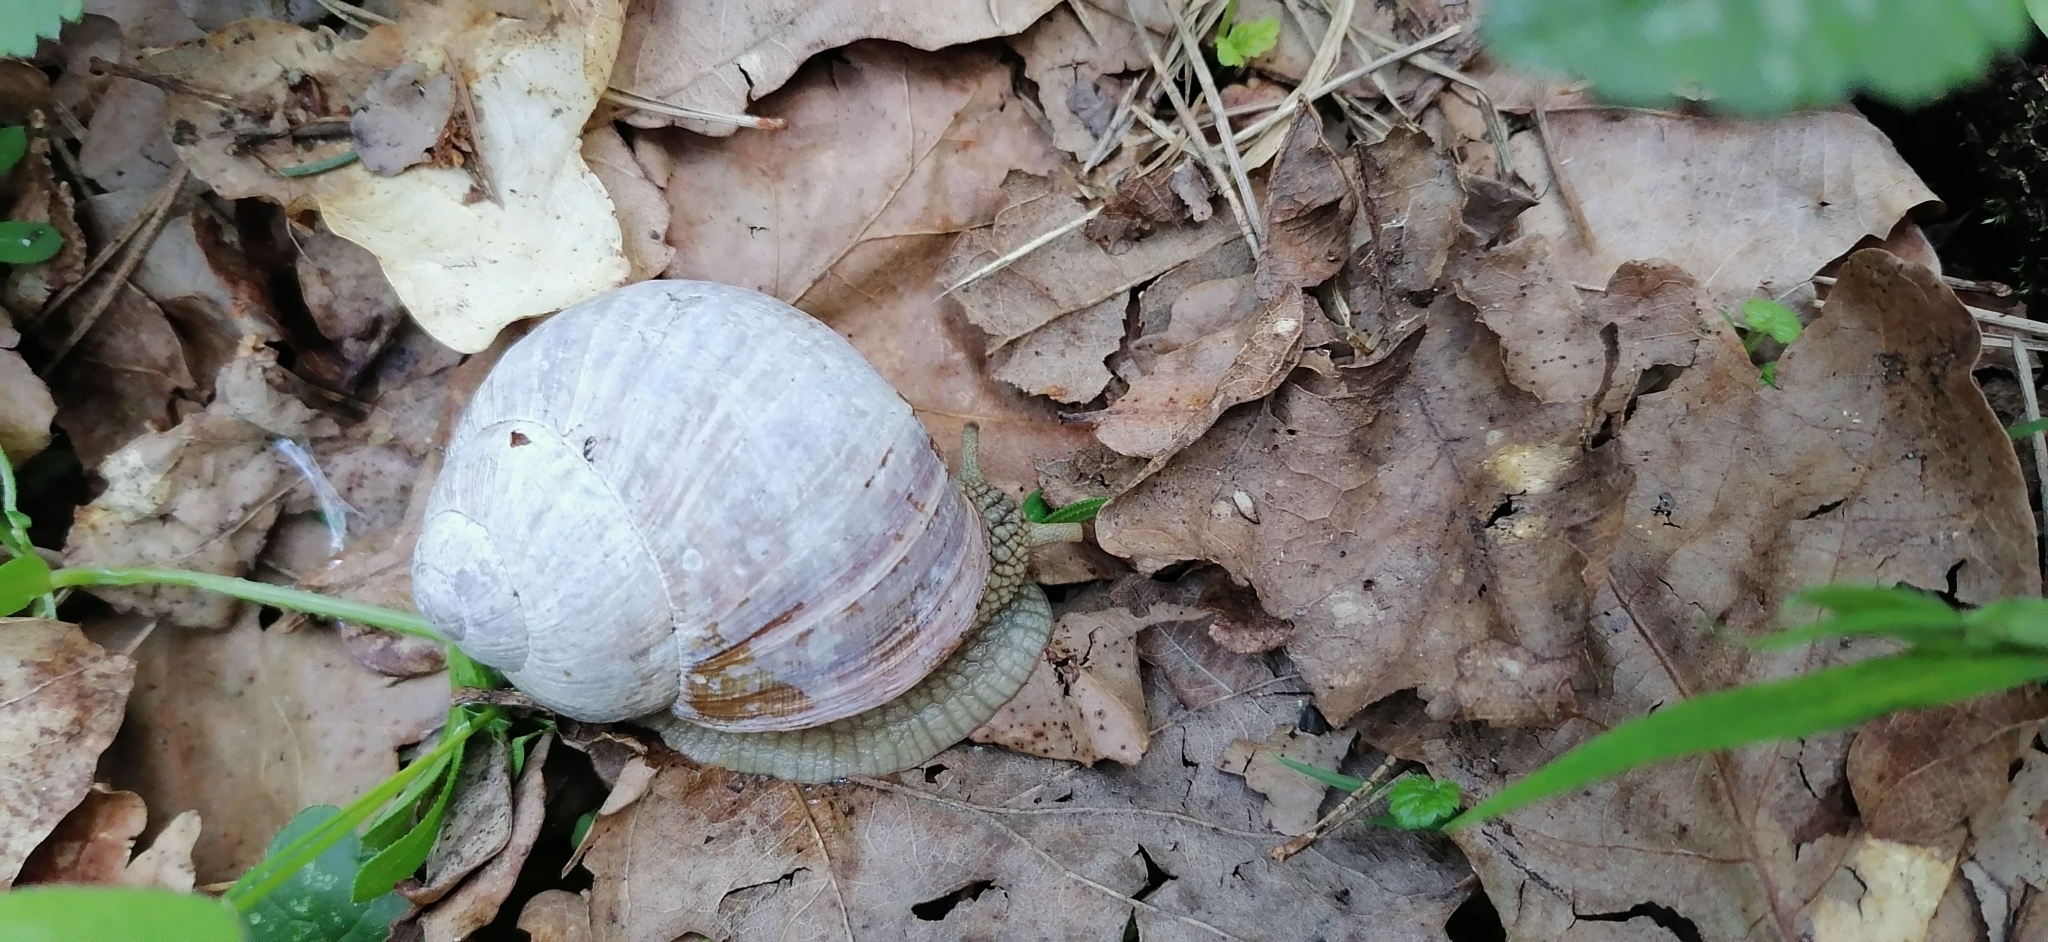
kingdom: Animalia
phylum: Mollusca
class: Gastropoda
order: Stylommatophora
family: Helicidae
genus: Helix
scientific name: Helix pomatia
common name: Roman snail
